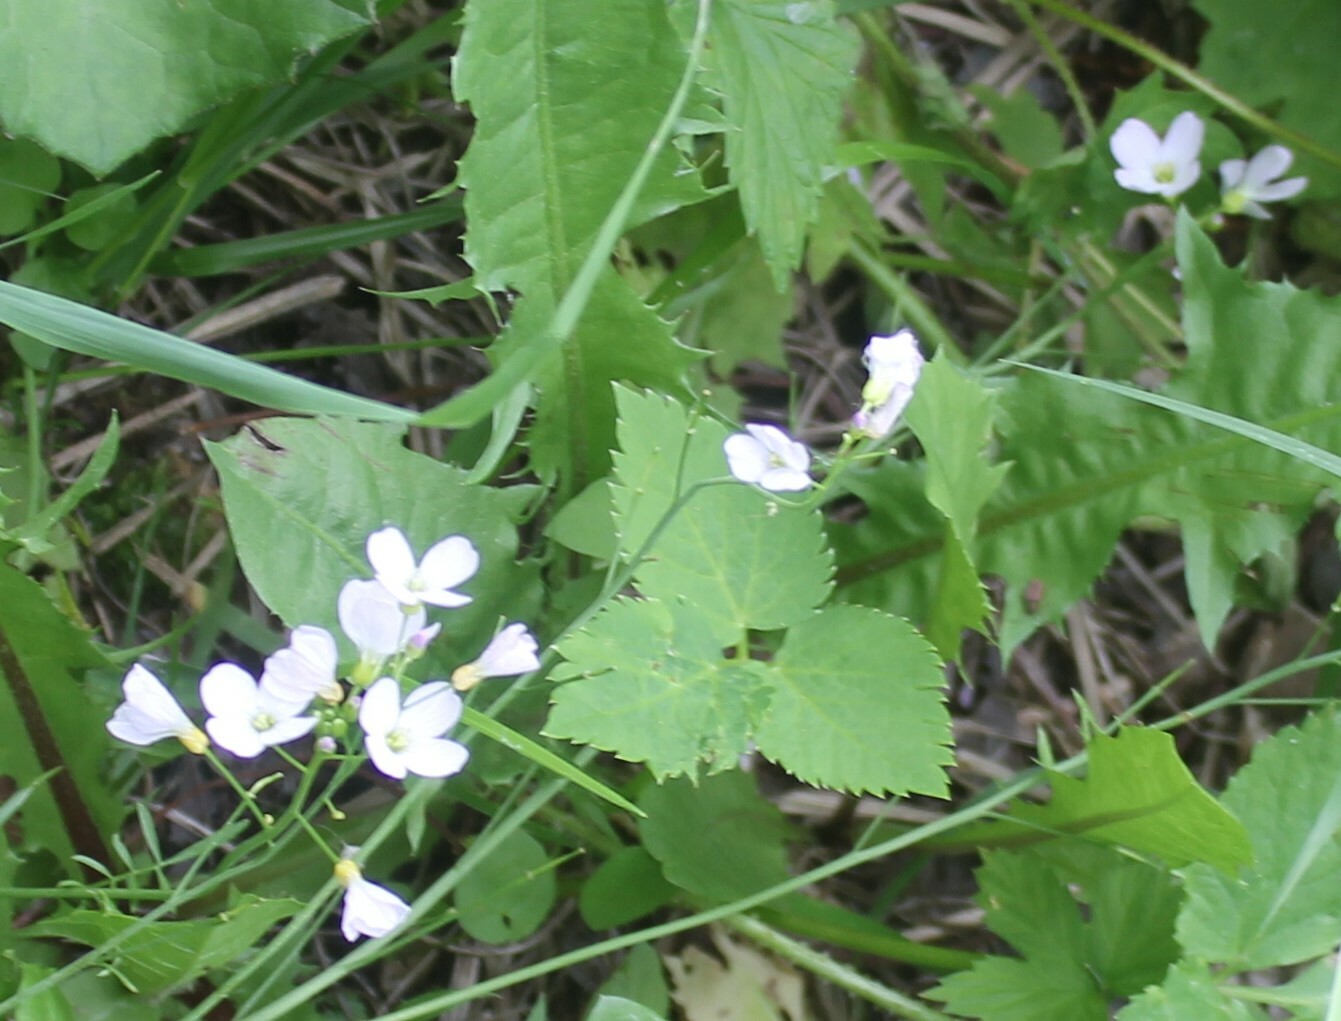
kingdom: Plantae
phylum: Tracheophyta
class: Magnoliopsida
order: Brassicales
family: Brassicaceae
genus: Cardamine
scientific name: Cardamine dentata
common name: Toothed bittercress
